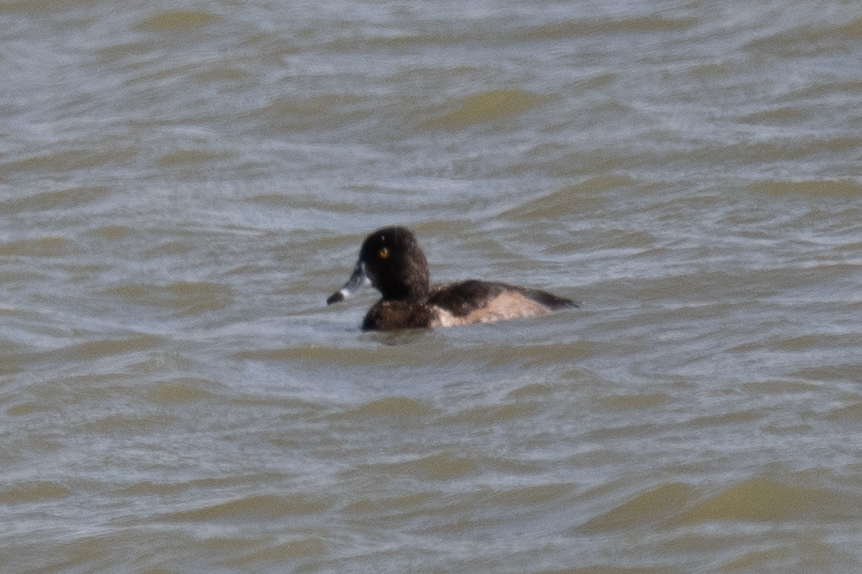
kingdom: Animalia
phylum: Chordata
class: Aves
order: Anseriformes
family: Anatidae
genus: Aythya
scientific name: Aythya collaris
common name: Ring-necked duck
